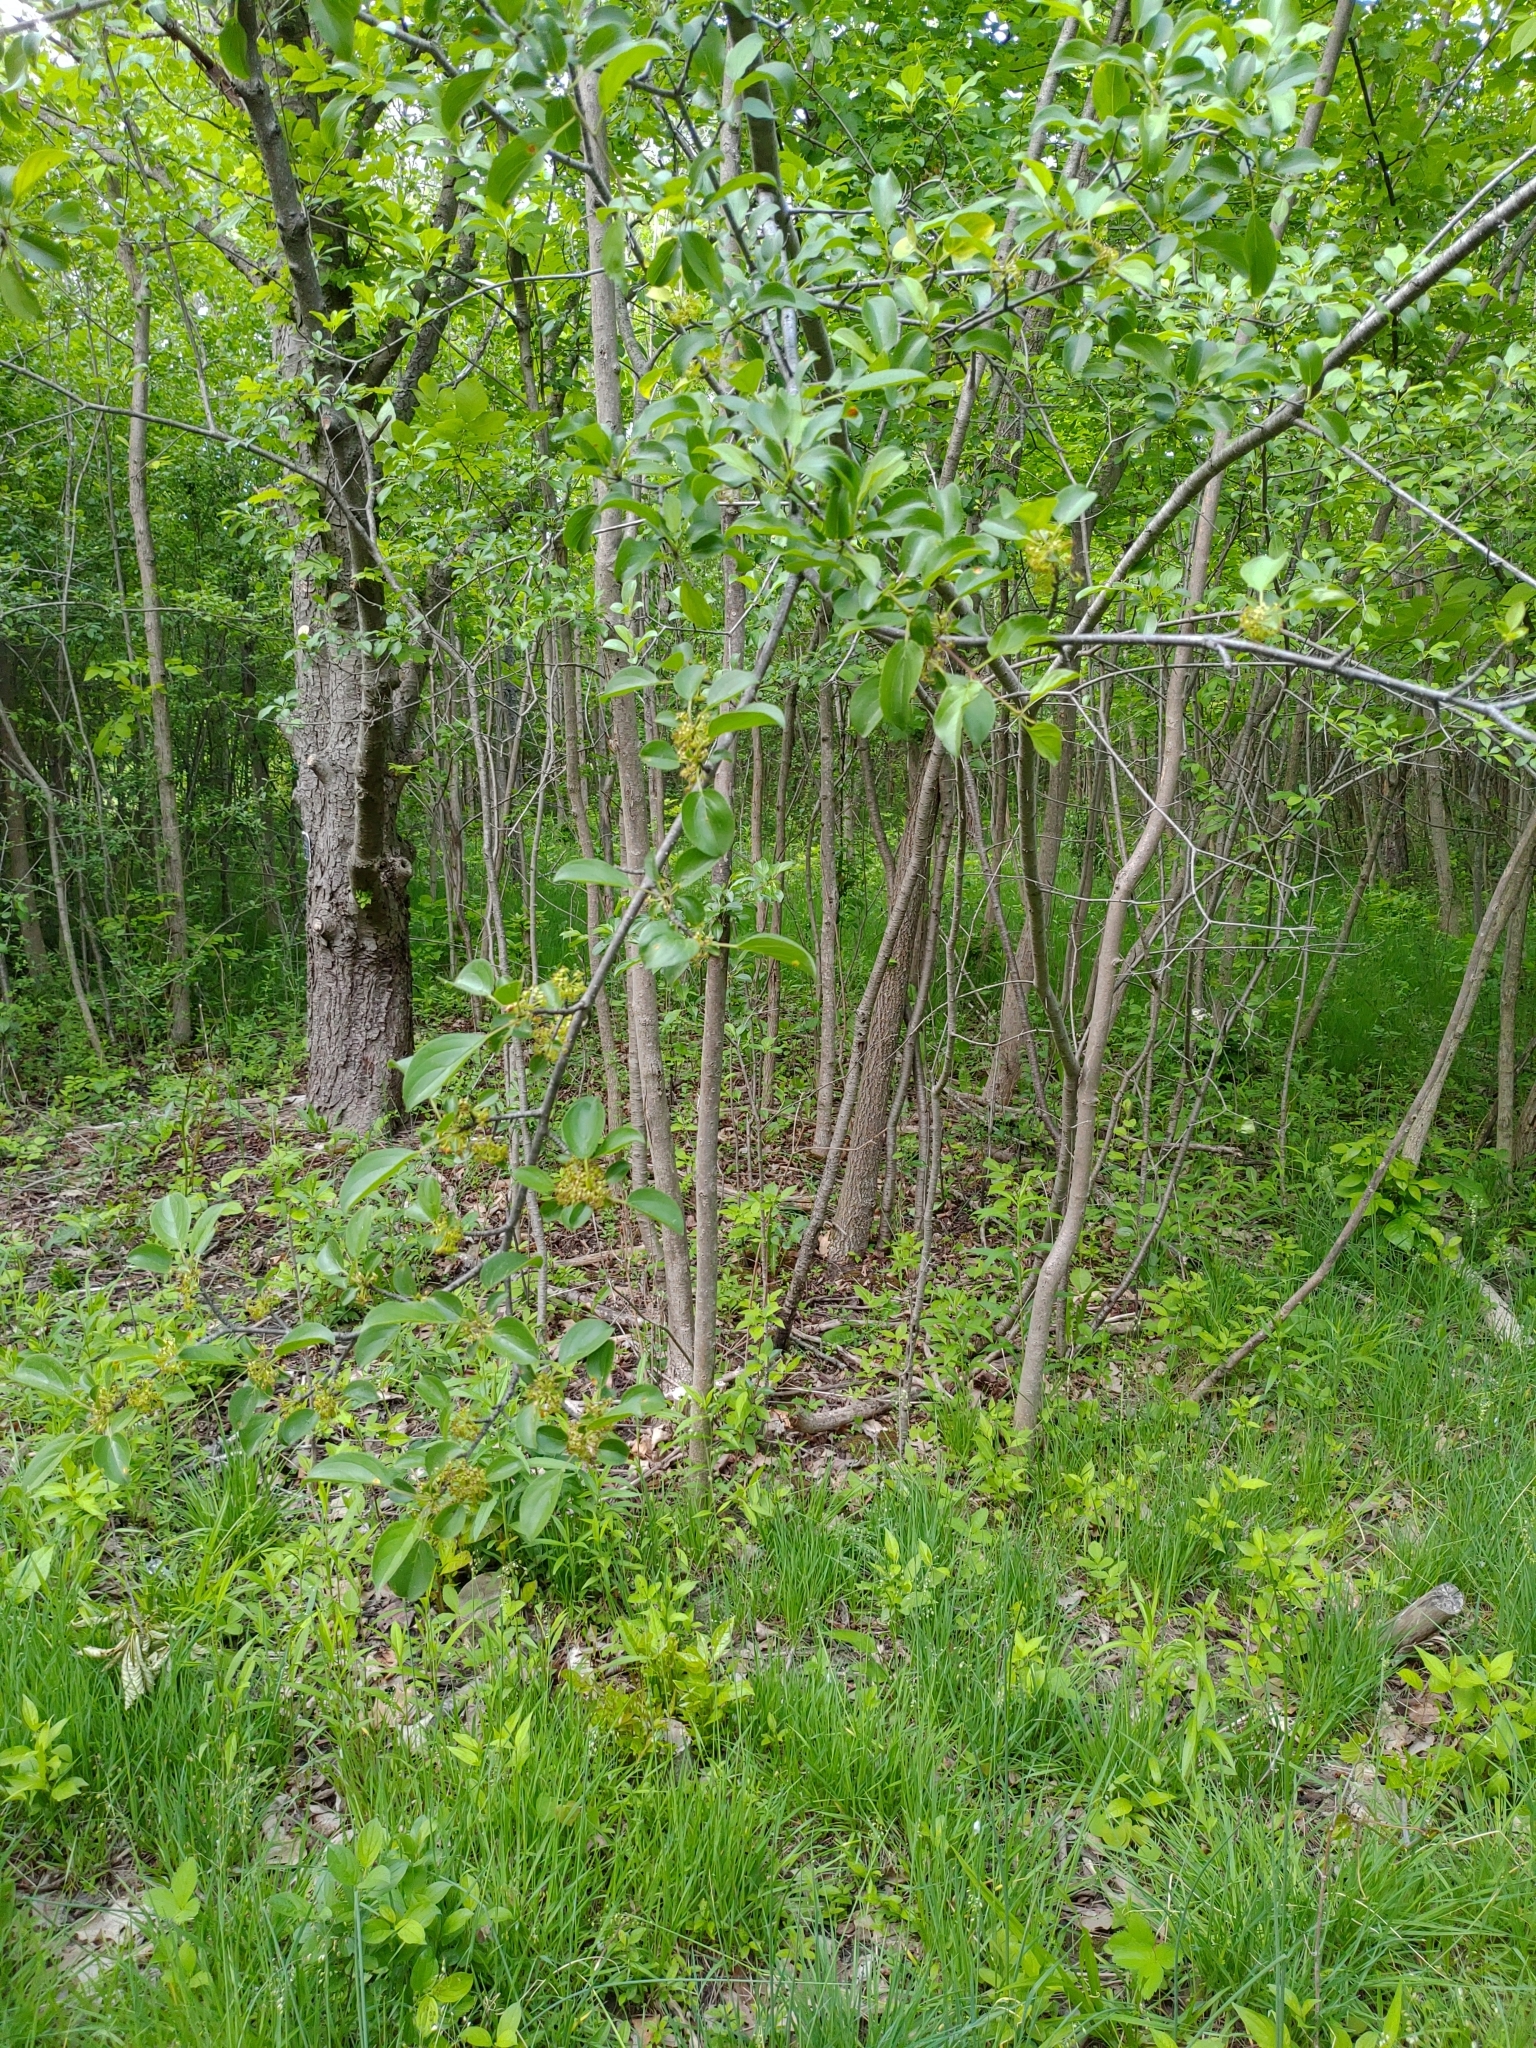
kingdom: Plantae
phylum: Tracheophyta
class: Magnoliopsida
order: Rosales
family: Rhamnaceae
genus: Rhamnus
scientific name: Rhamnus cathartica
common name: Common buckthorn
